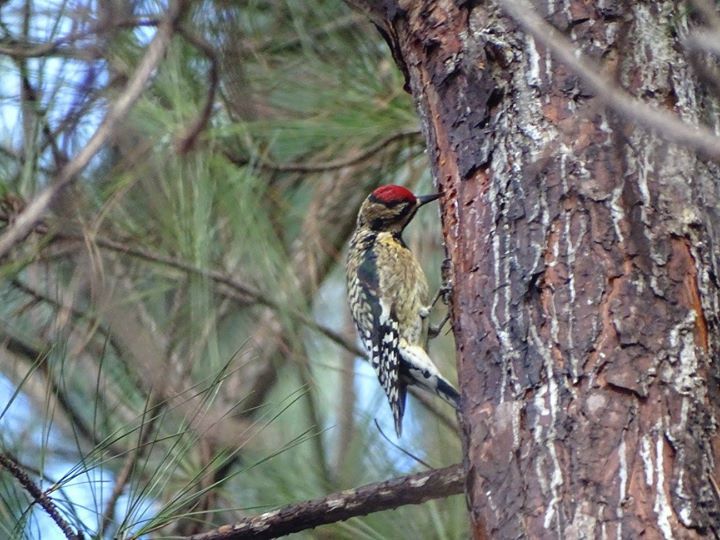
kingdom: Animalia
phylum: Chordata
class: Aves
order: Piciformes
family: Picidae
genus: Sphyrapicus
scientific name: Sphyrapicus varius
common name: Yellow-bellied sapsucker
